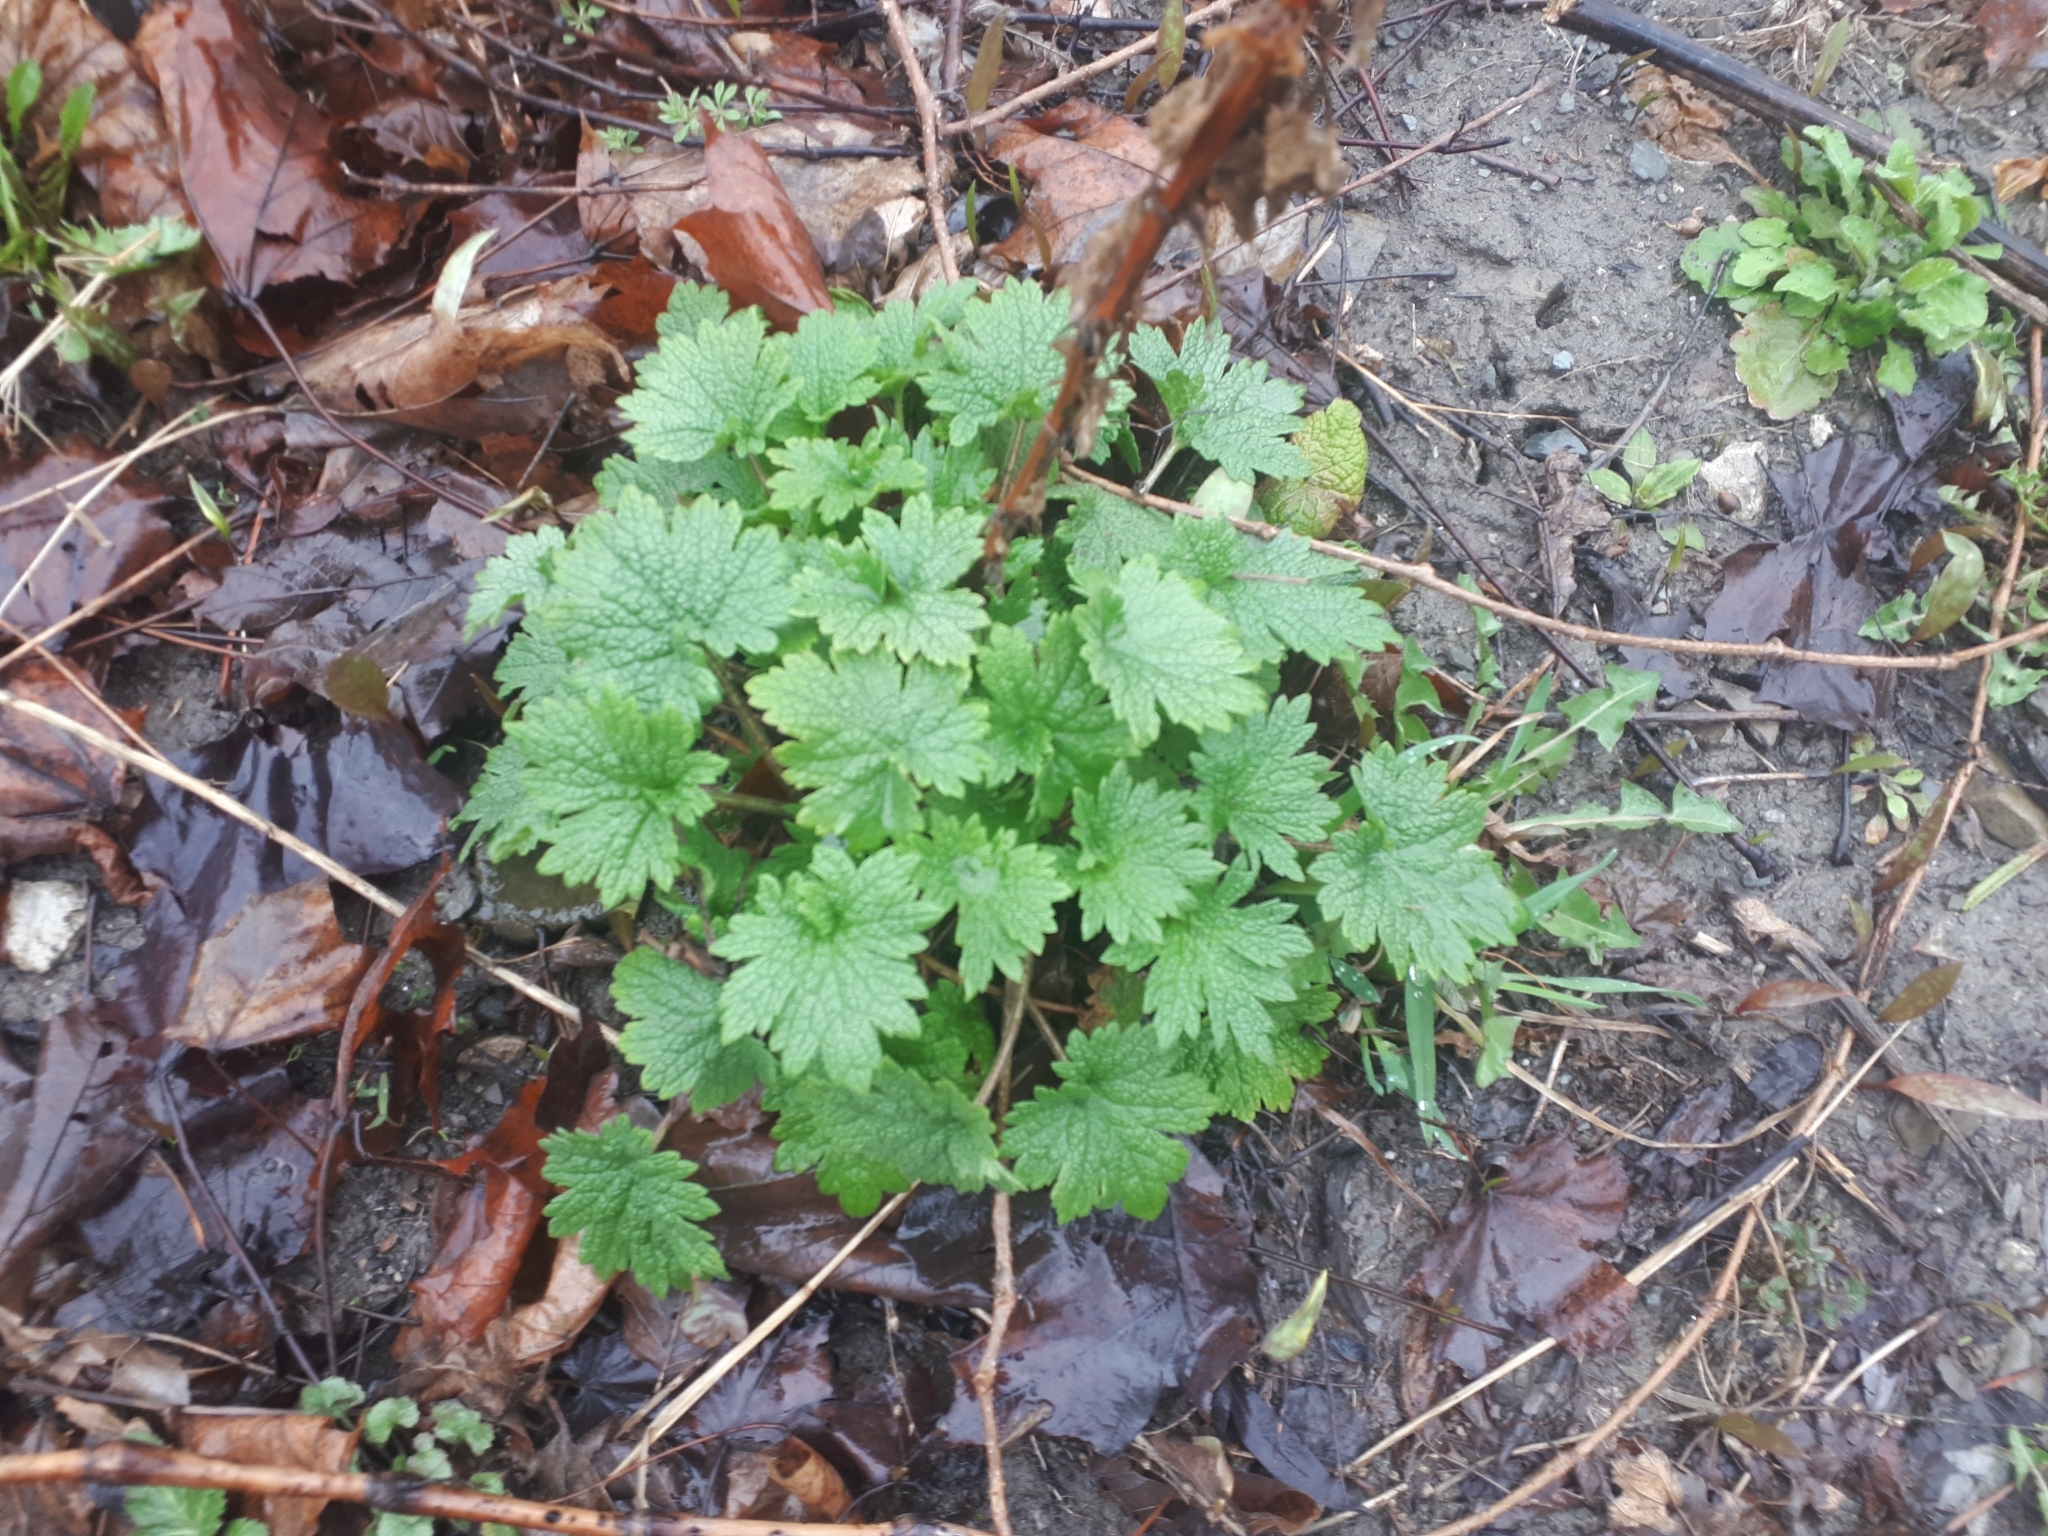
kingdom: Plantae
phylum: Tracheophyta
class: Magnoliopsida
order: Lamiales
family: Lamiaceae
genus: Leonurus
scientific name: Leonurus cardiaca
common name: Motherwort
